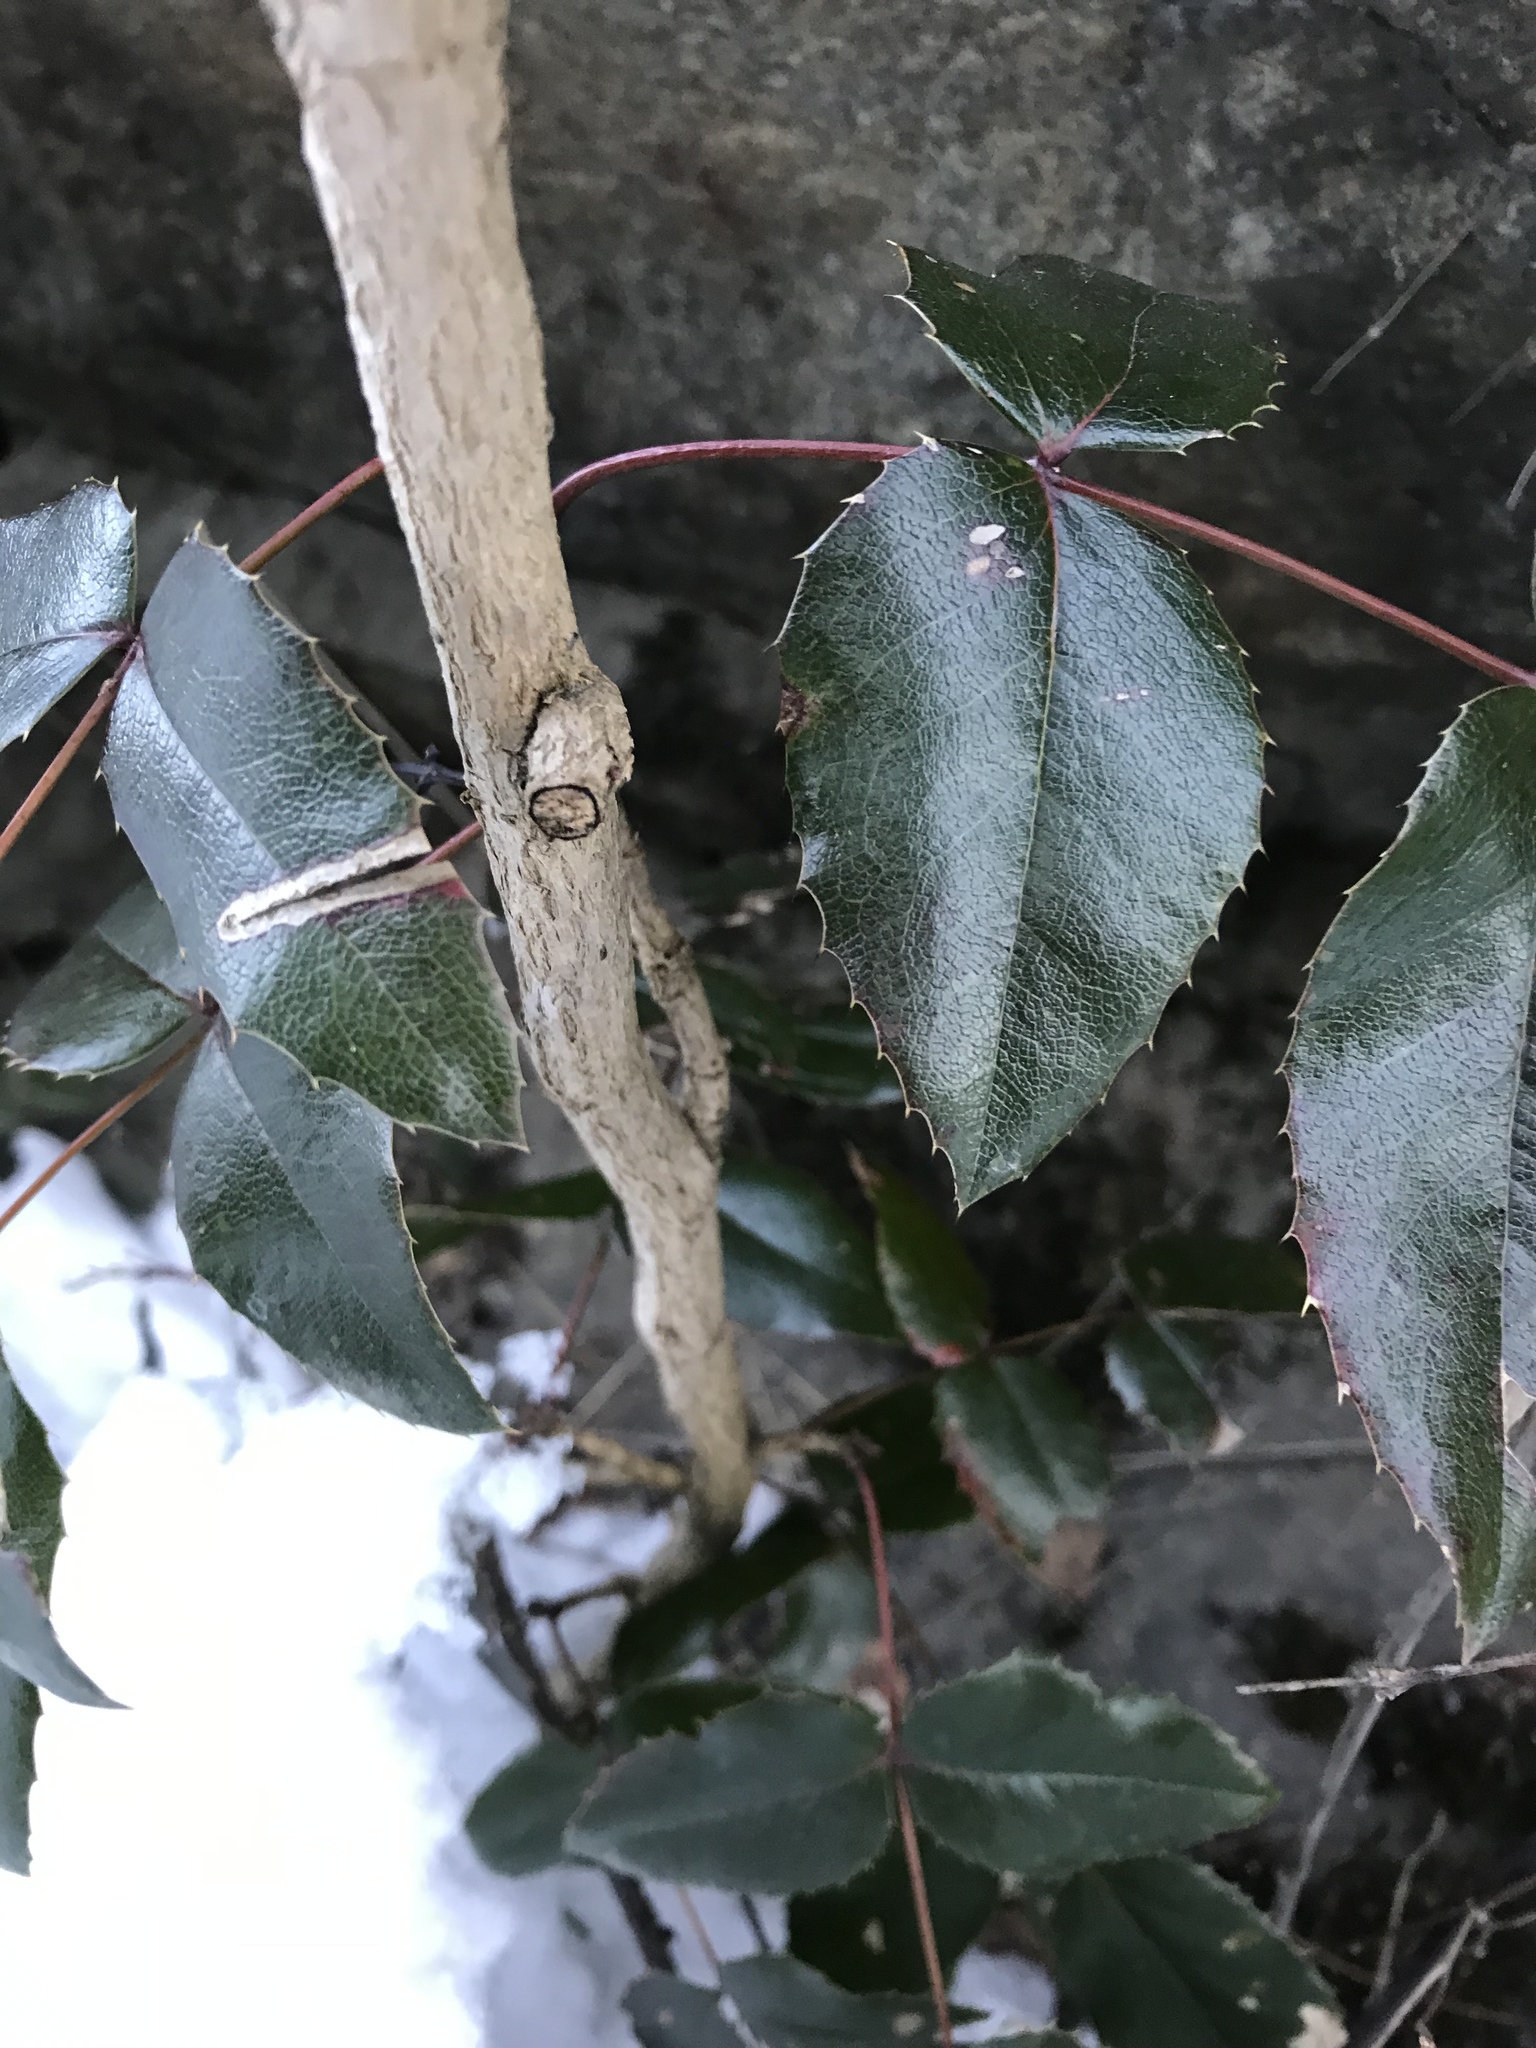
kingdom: Plantae
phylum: Tracheophyta
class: Magnoliopsida
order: Ranunculales
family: Berberidaceae
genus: Mahonia
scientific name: Mahonia aquifolium
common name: Oregon-grape
